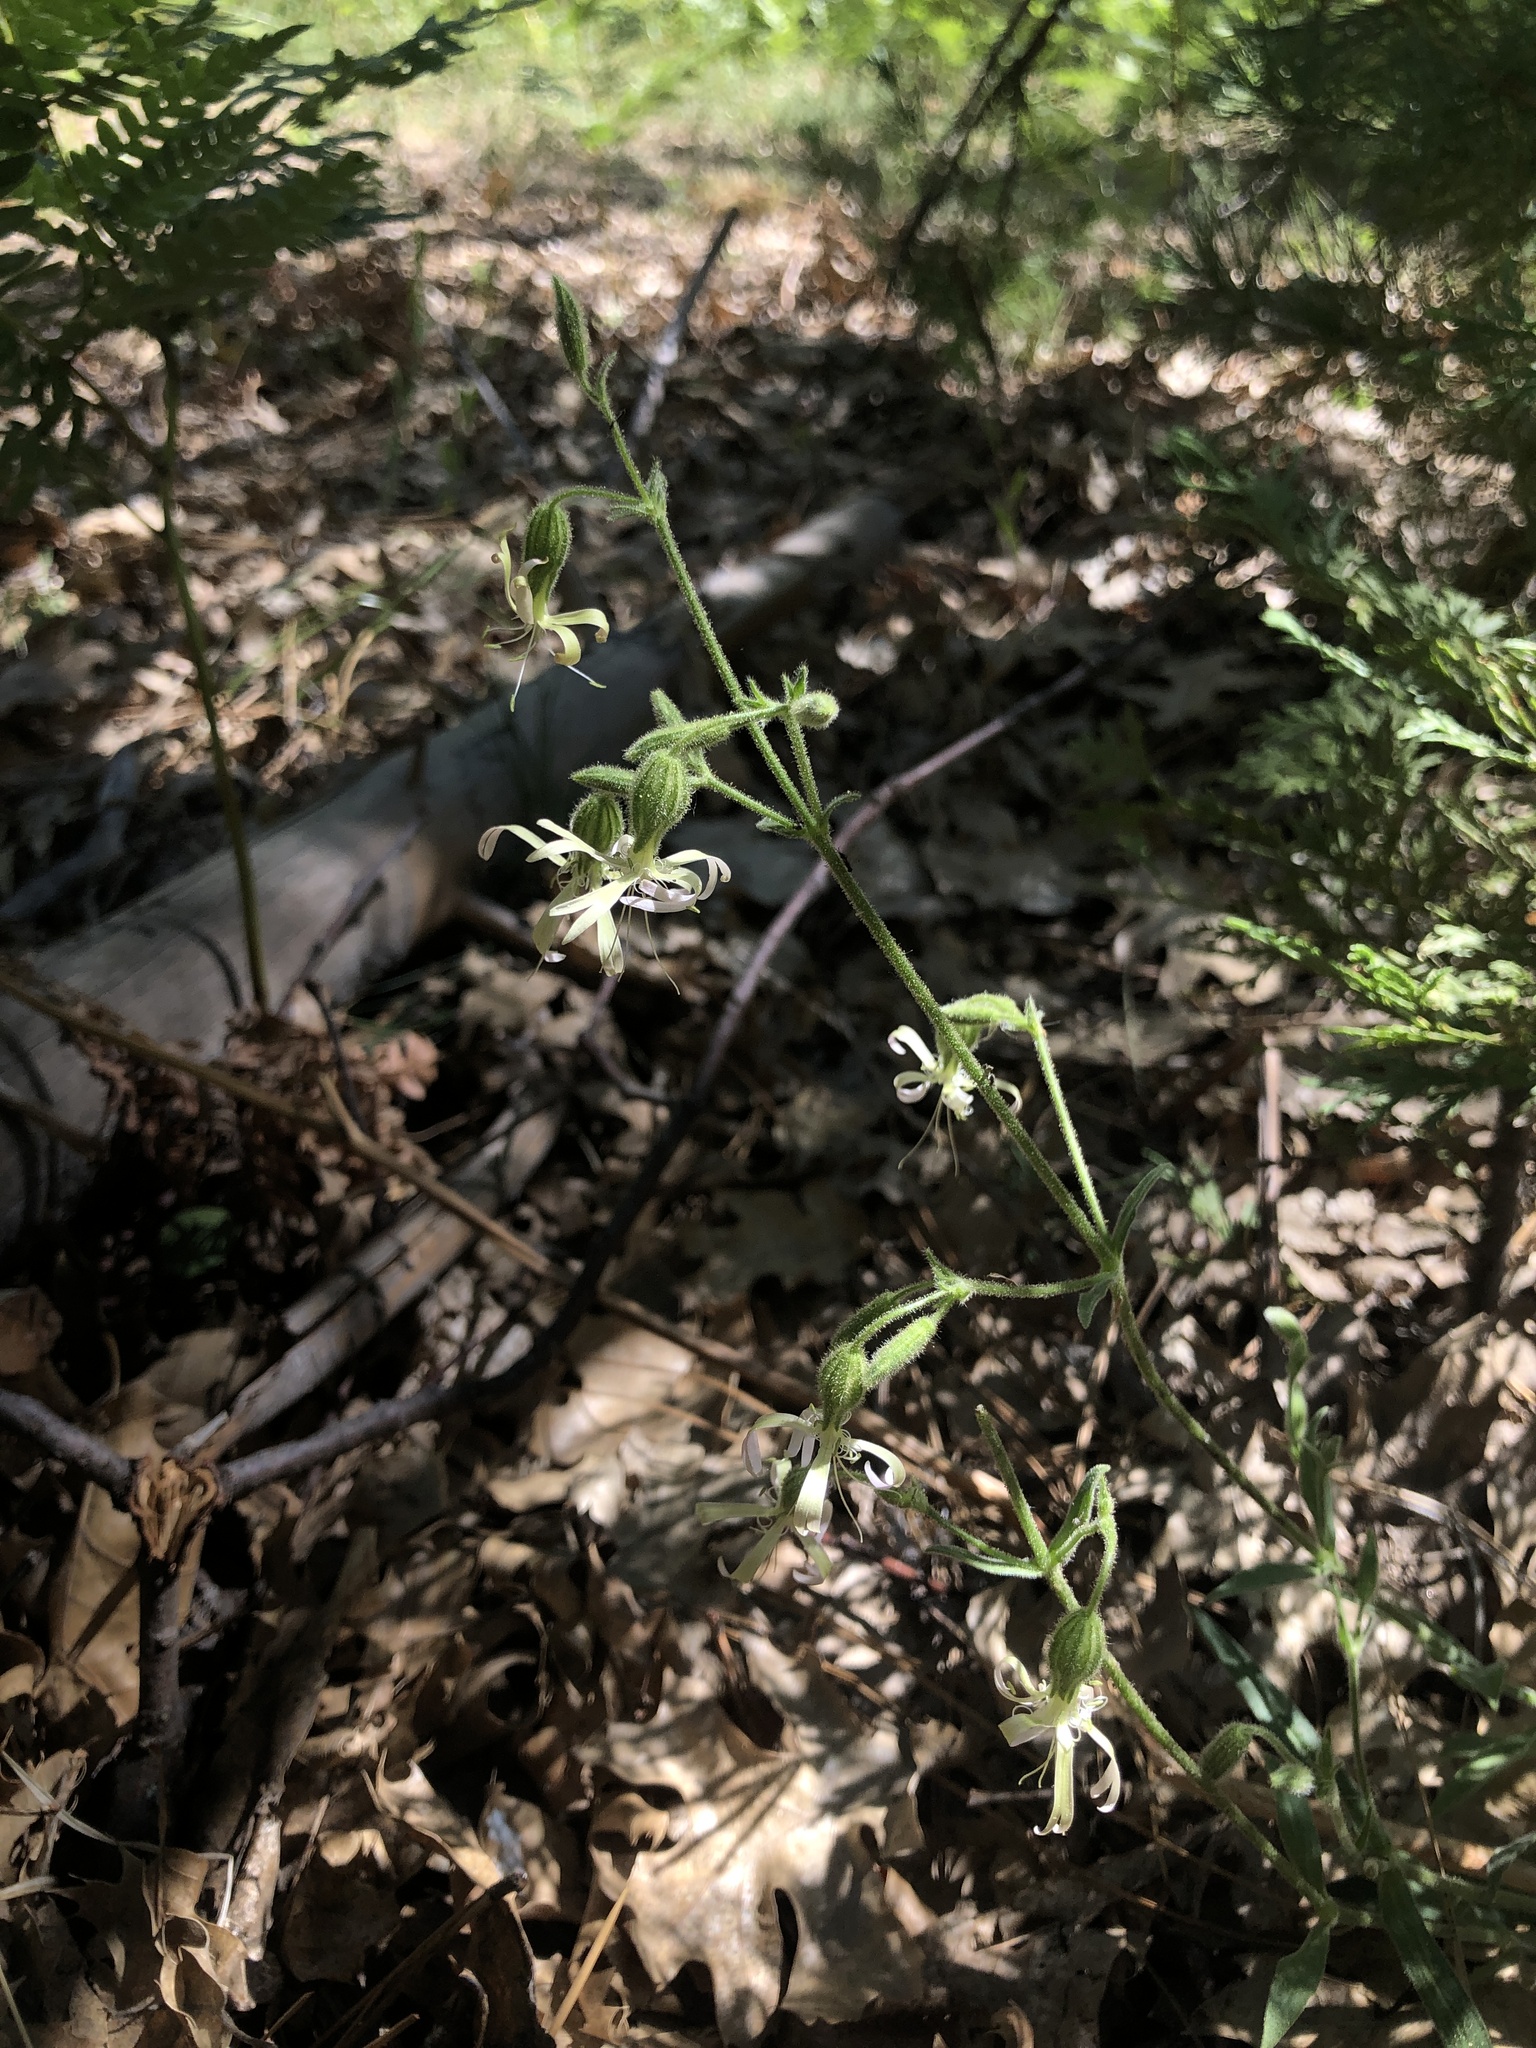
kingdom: Plantae
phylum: Tracheophyta
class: Magnoliopsida
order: Caryophyllales
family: Caryophyllaceae
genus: Silene
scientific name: Silene lemmonii
